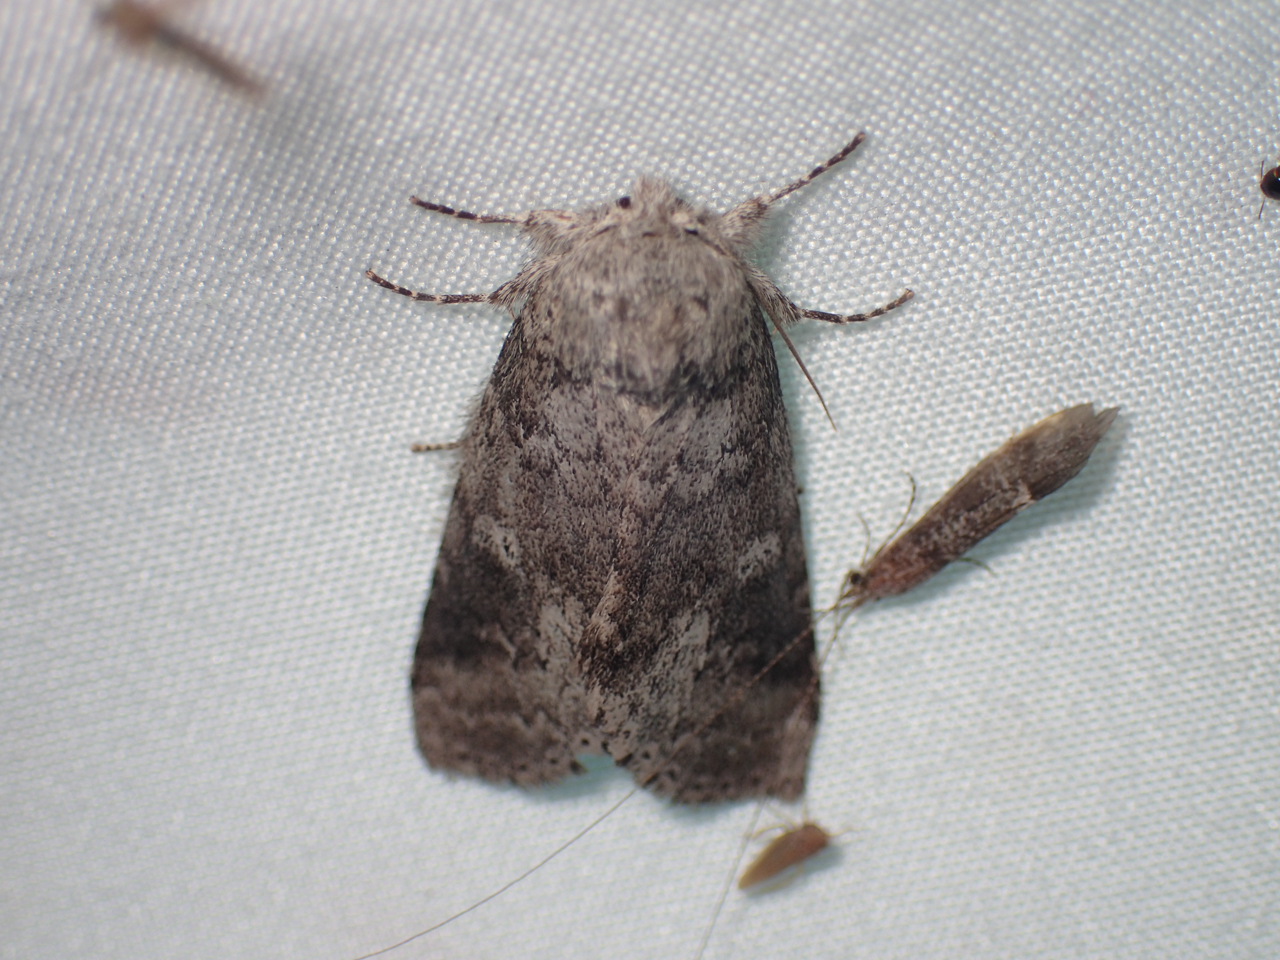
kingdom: Animalia
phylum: Arthropoda
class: Insecta
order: Lepidoptera
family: Notodontidae
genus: Lochmaeus
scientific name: Lochmaeus manteo
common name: Variable oakleaf caterpillar moth
